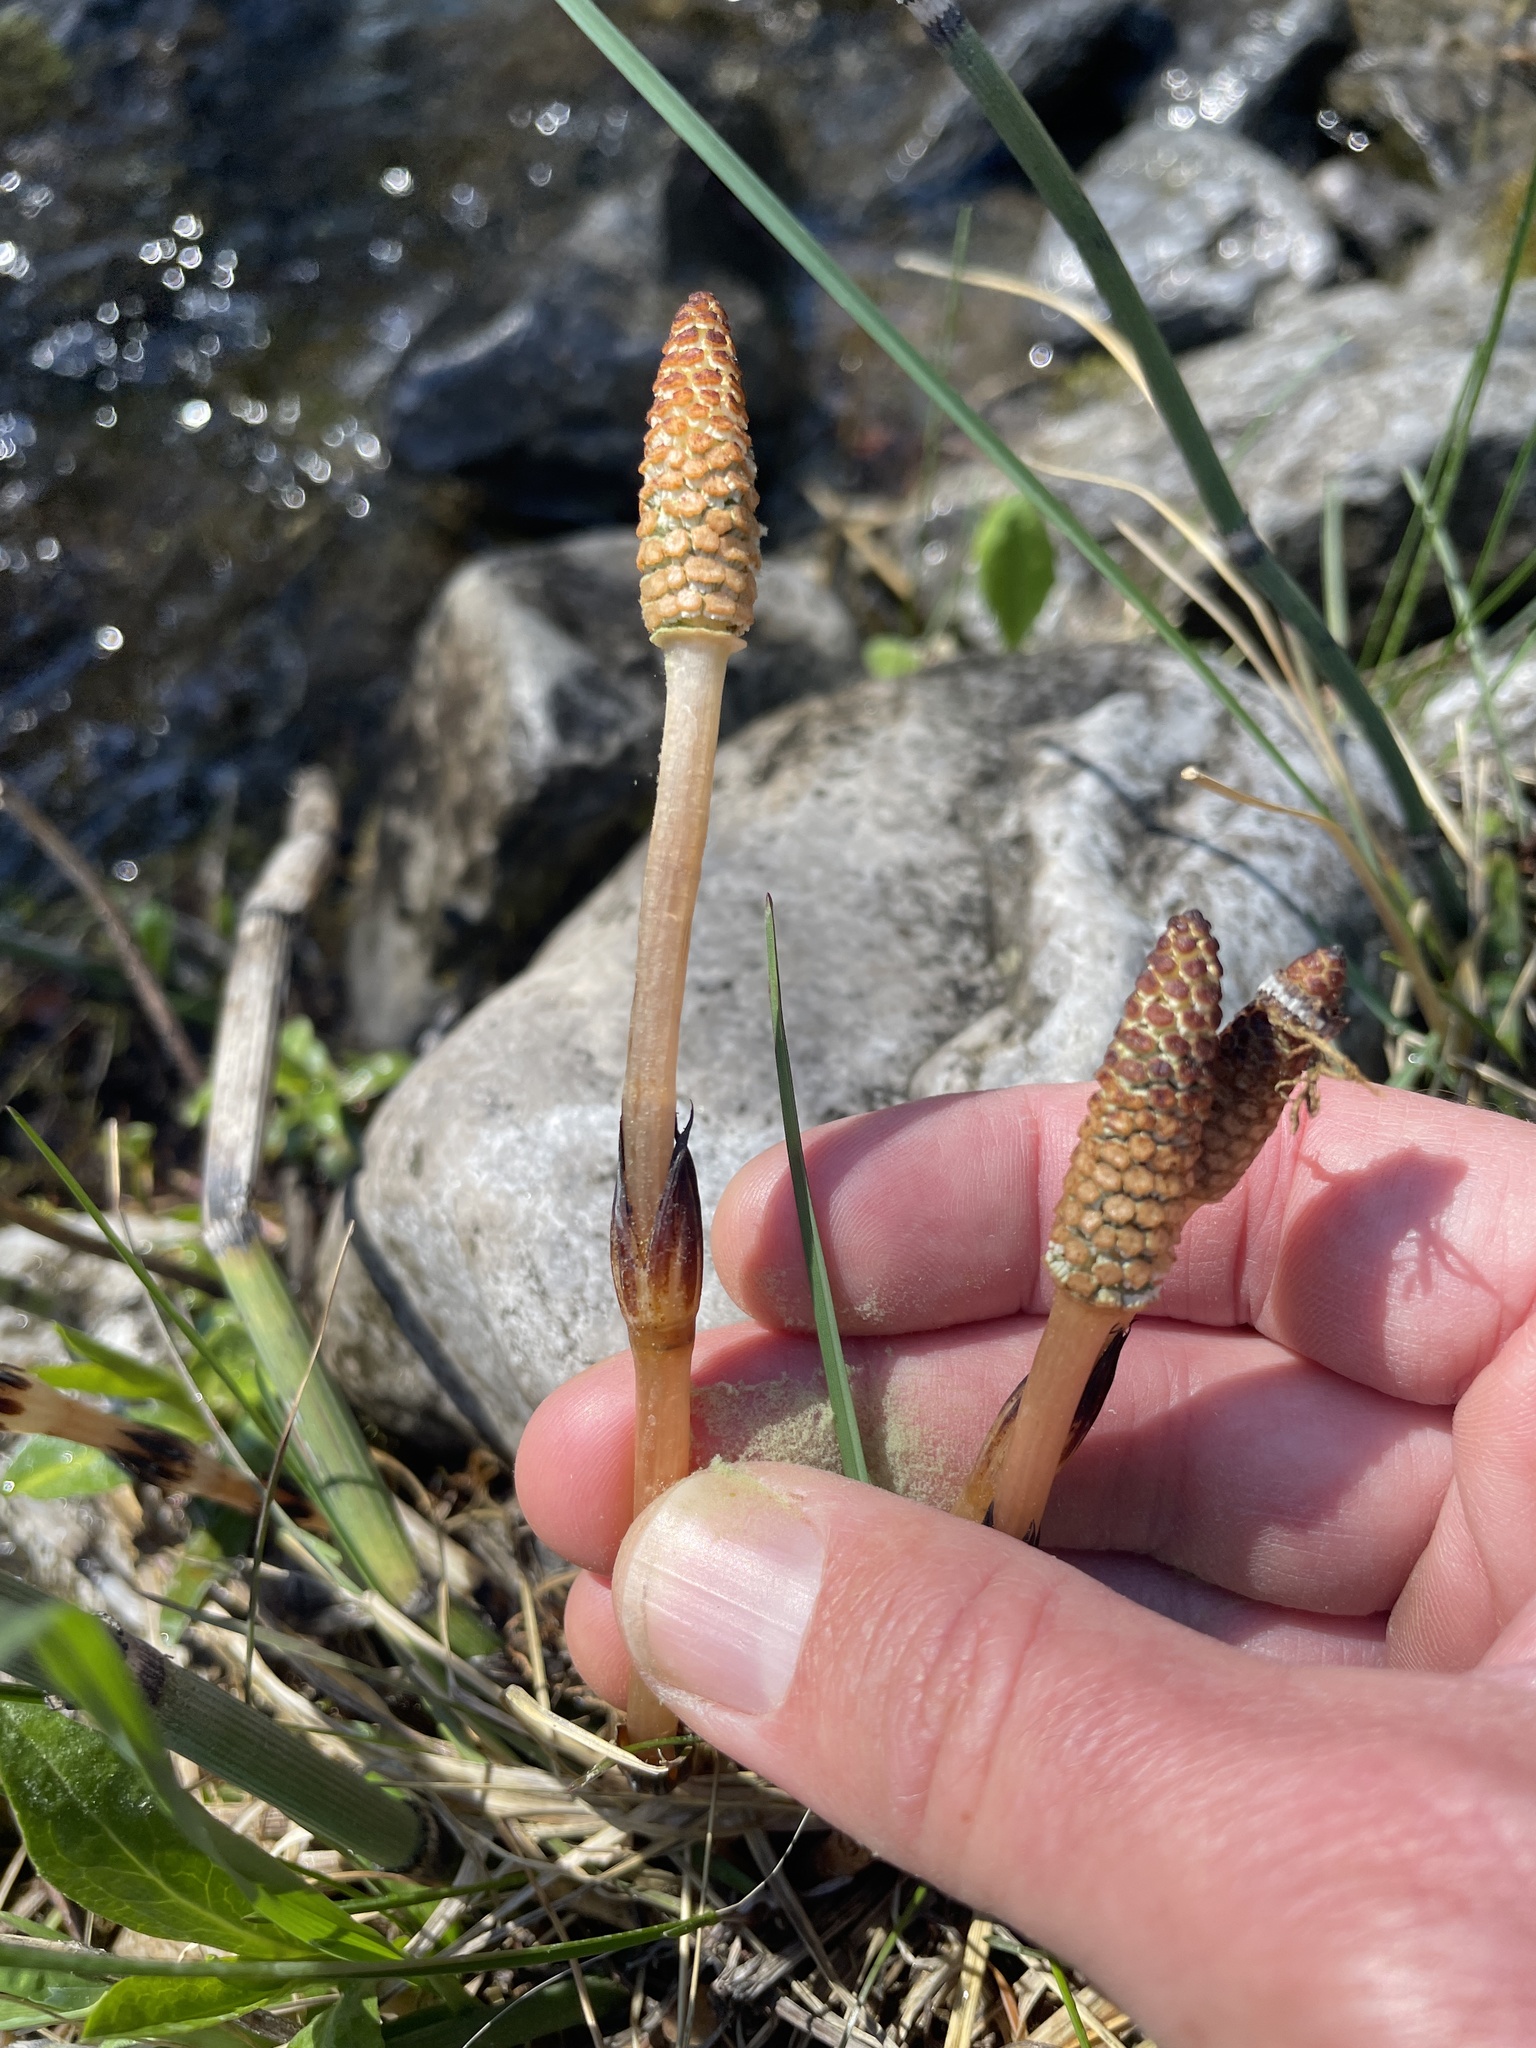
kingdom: Plantae
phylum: Tracheophyta
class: Polypodiopsida
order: Equisetales
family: Equisetaceae
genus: Equisetum
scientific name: Equisetum arvense
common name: Field horsetail
